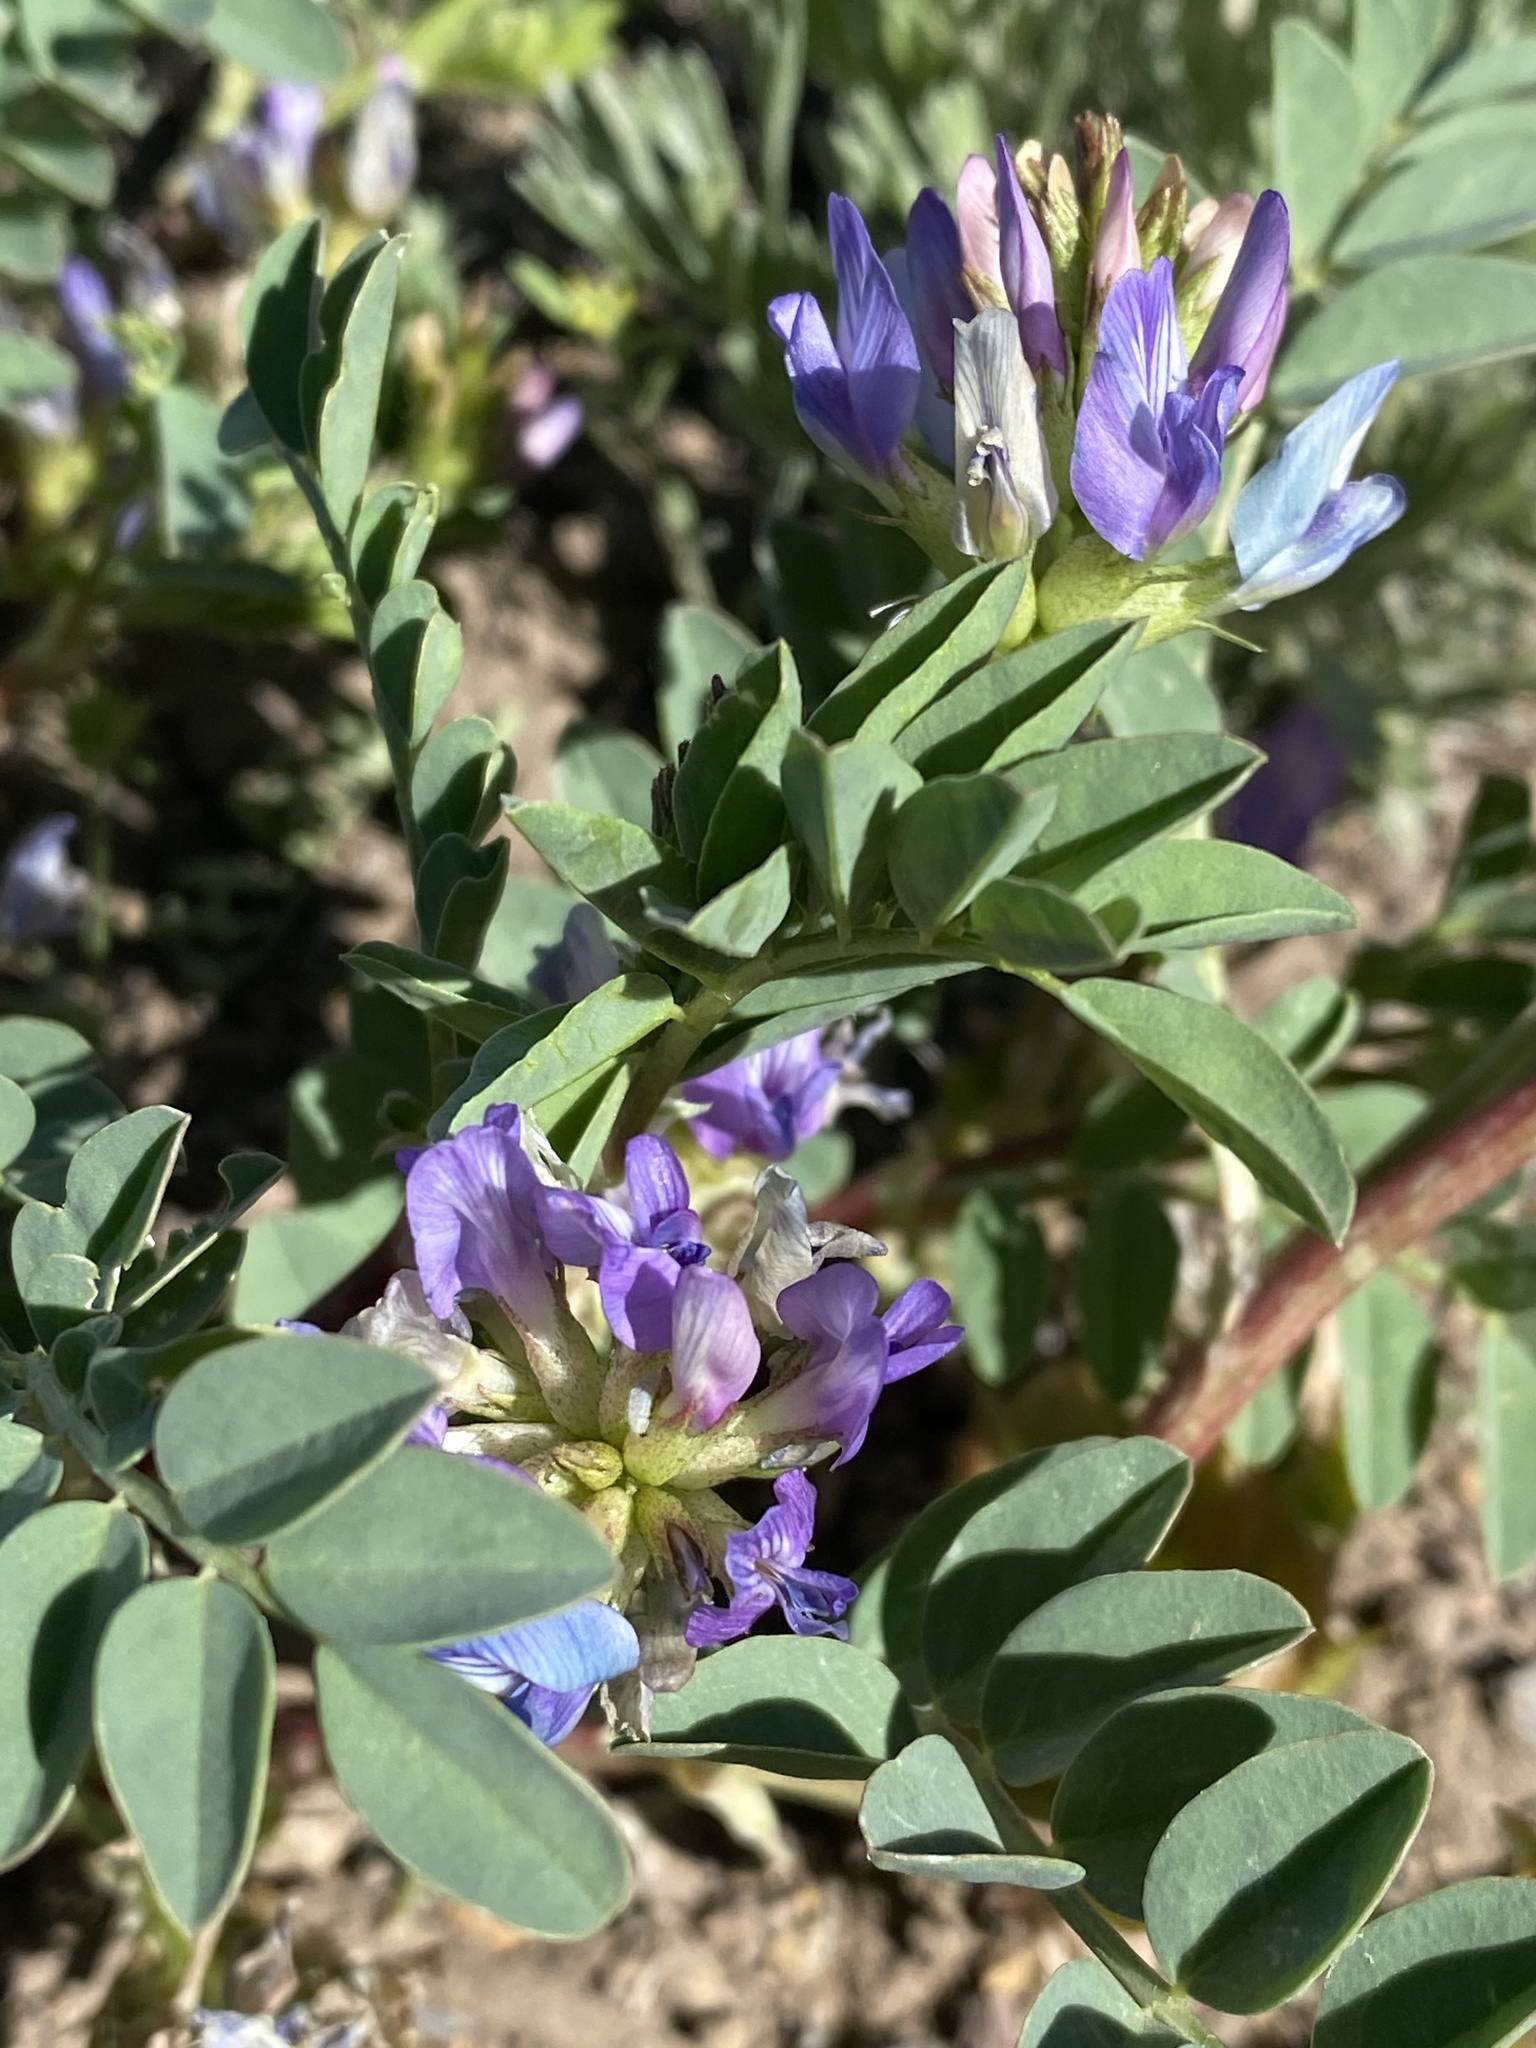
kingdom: Plantae
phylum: Tracheophyta
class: Magnoliopsida
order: Fabales
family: Fabaceae
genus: Astragalus
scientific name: Astragalus lentiginosus
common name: Freckled milkvetch
